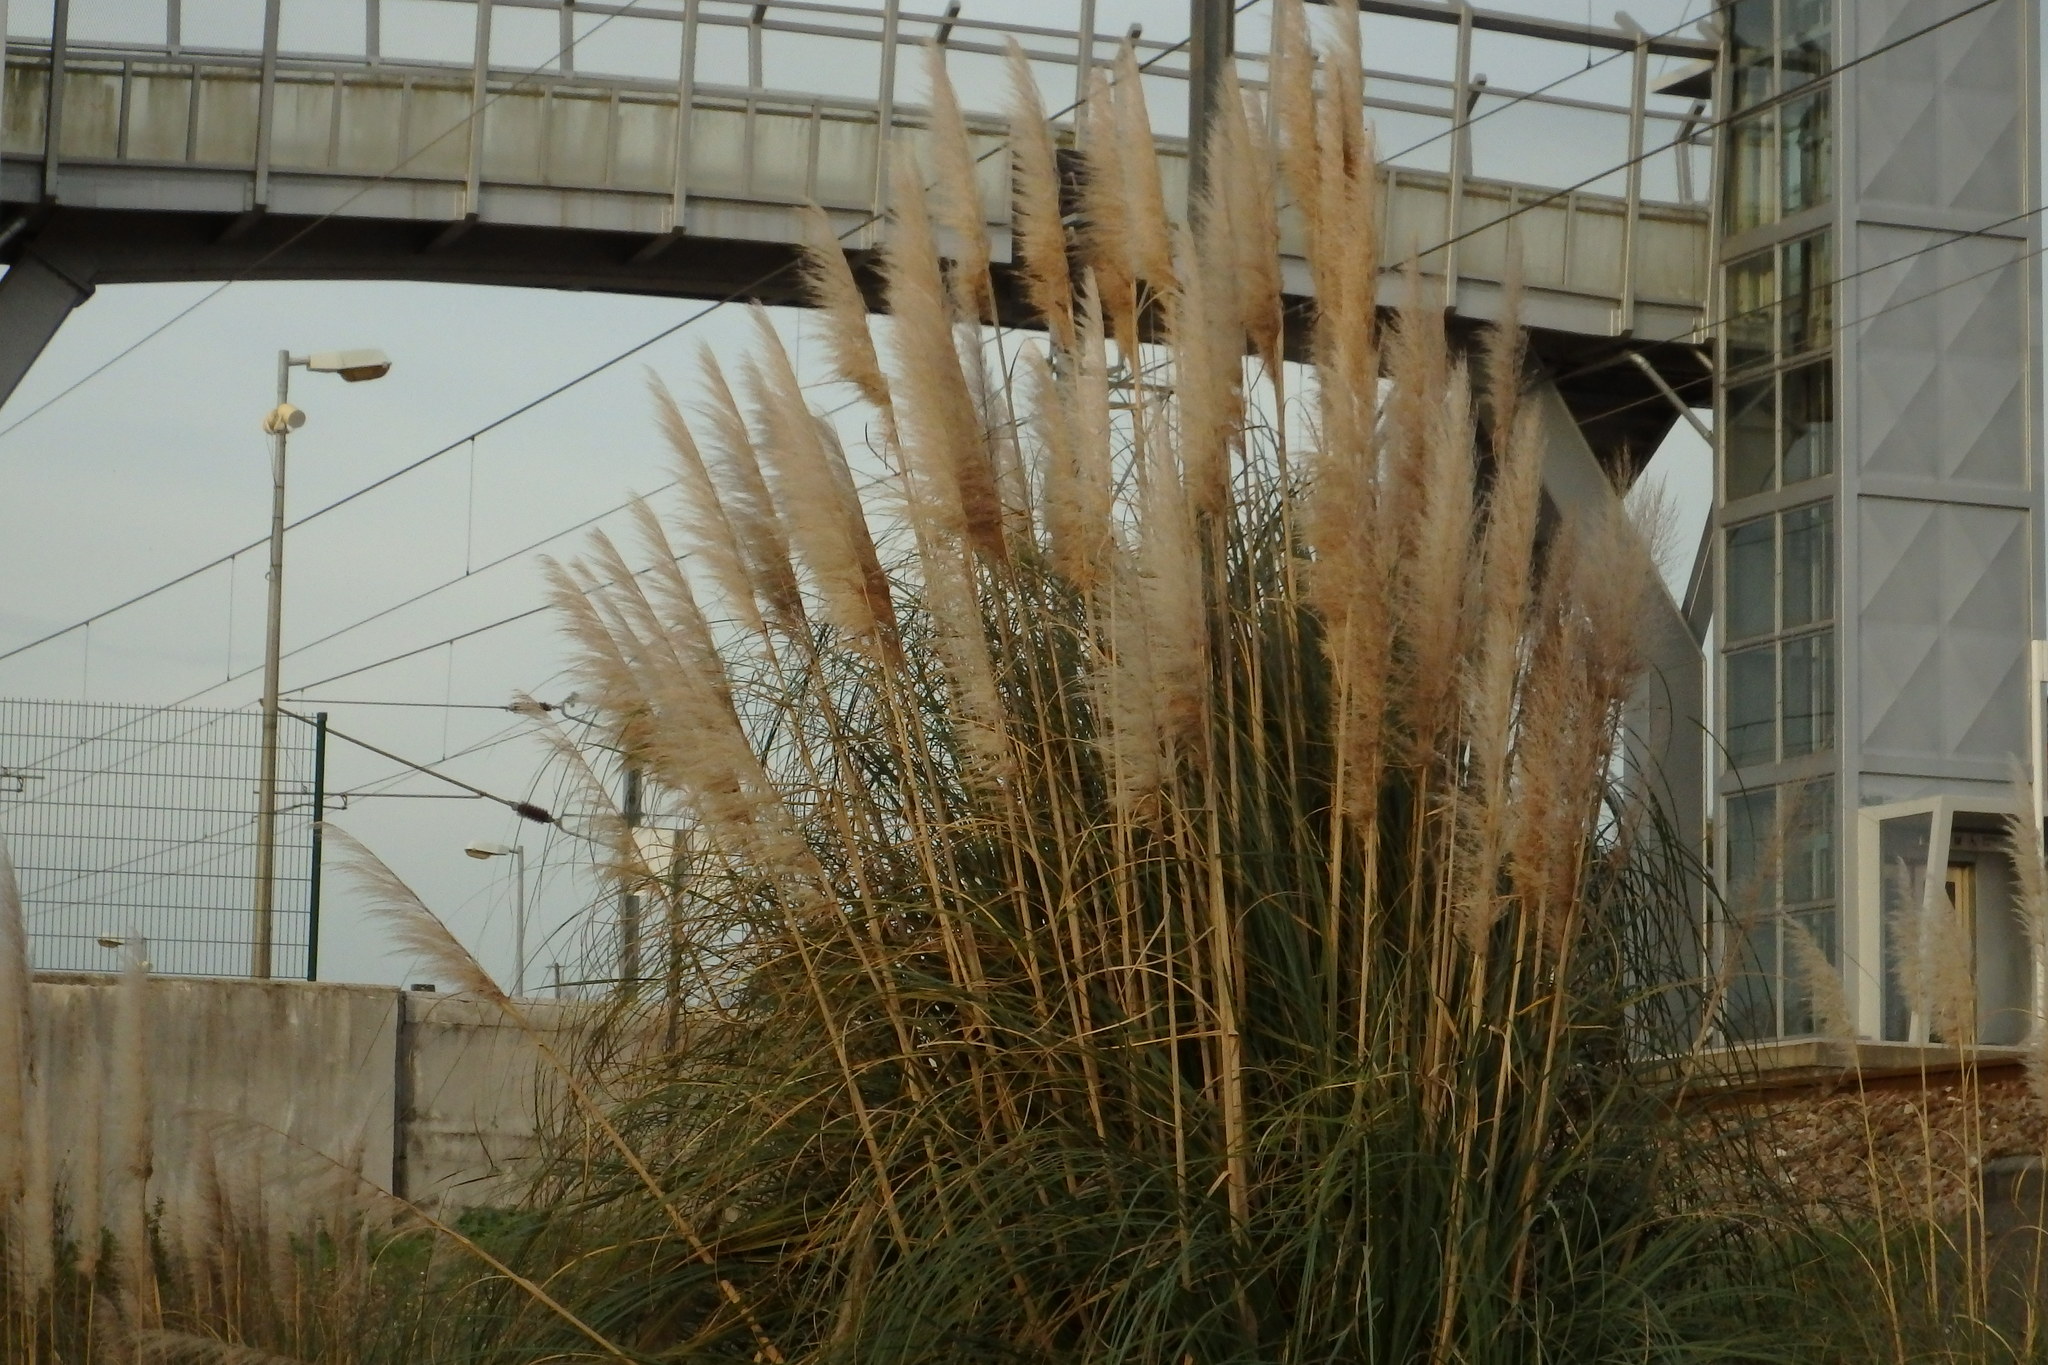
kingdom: Plantae
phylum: Tracheophyta
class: Liliopsida
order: Poales
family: Poaceae
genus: Cortaderia
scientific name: Cortaderia selloana
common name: Uruguayan pampas grass
